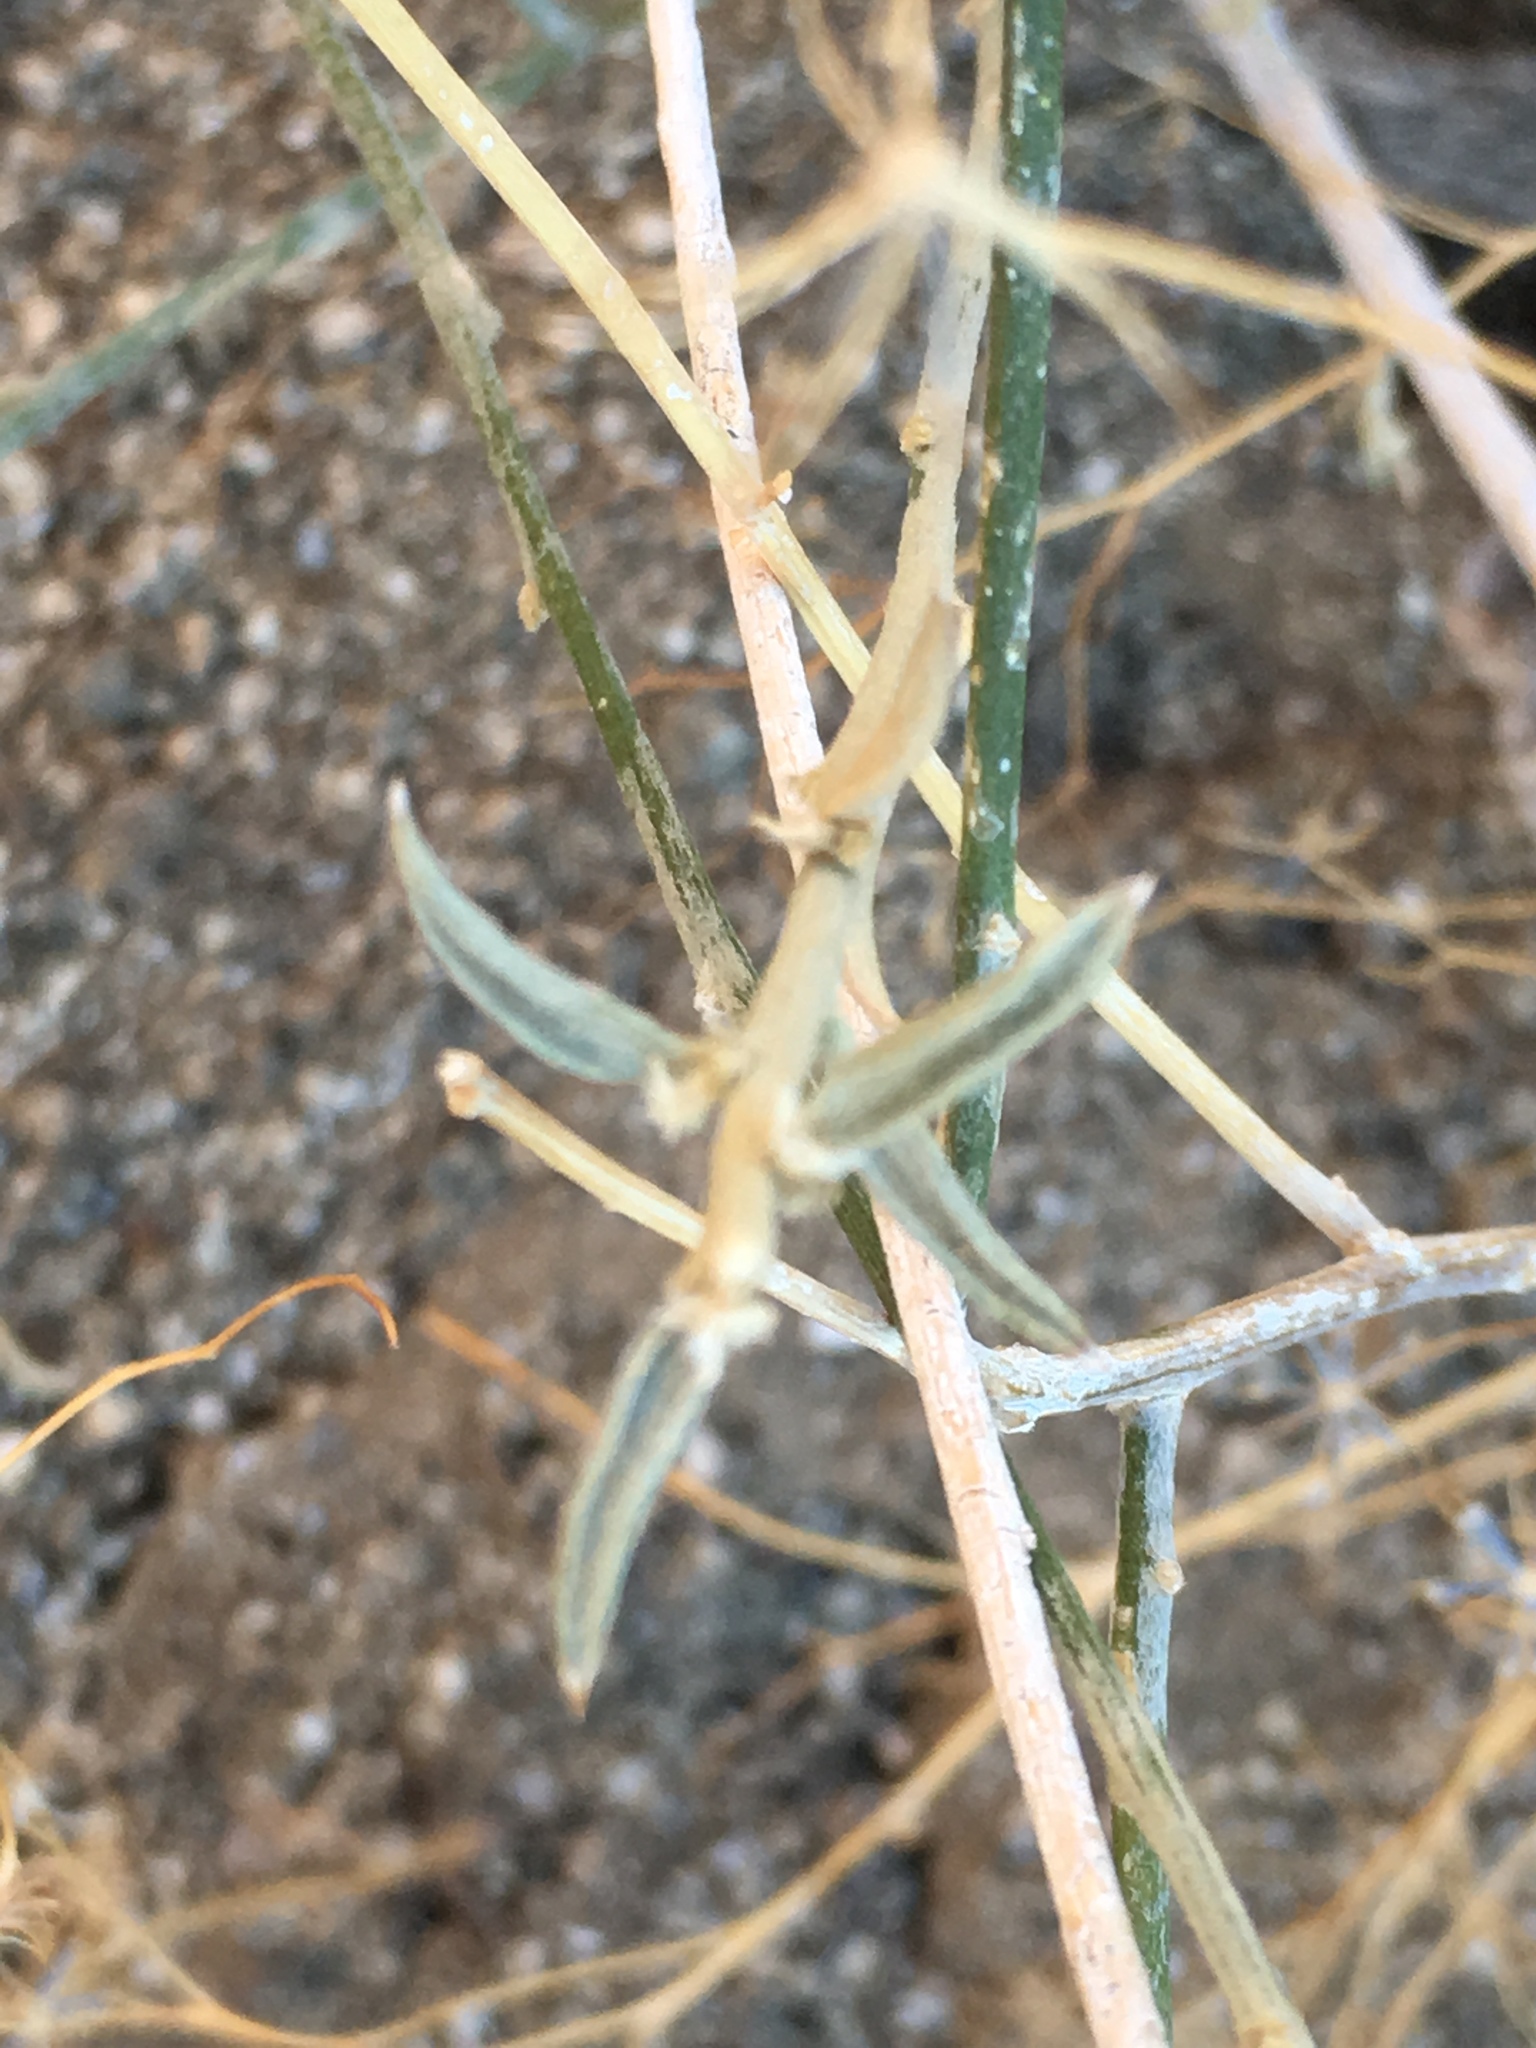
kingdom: Plantae
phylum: Tracheophyta
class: Magnoliopsida
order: Malpighiales
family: Euphorbiaceae
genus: Ditaxis
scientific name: Ditaxis lanceolata
